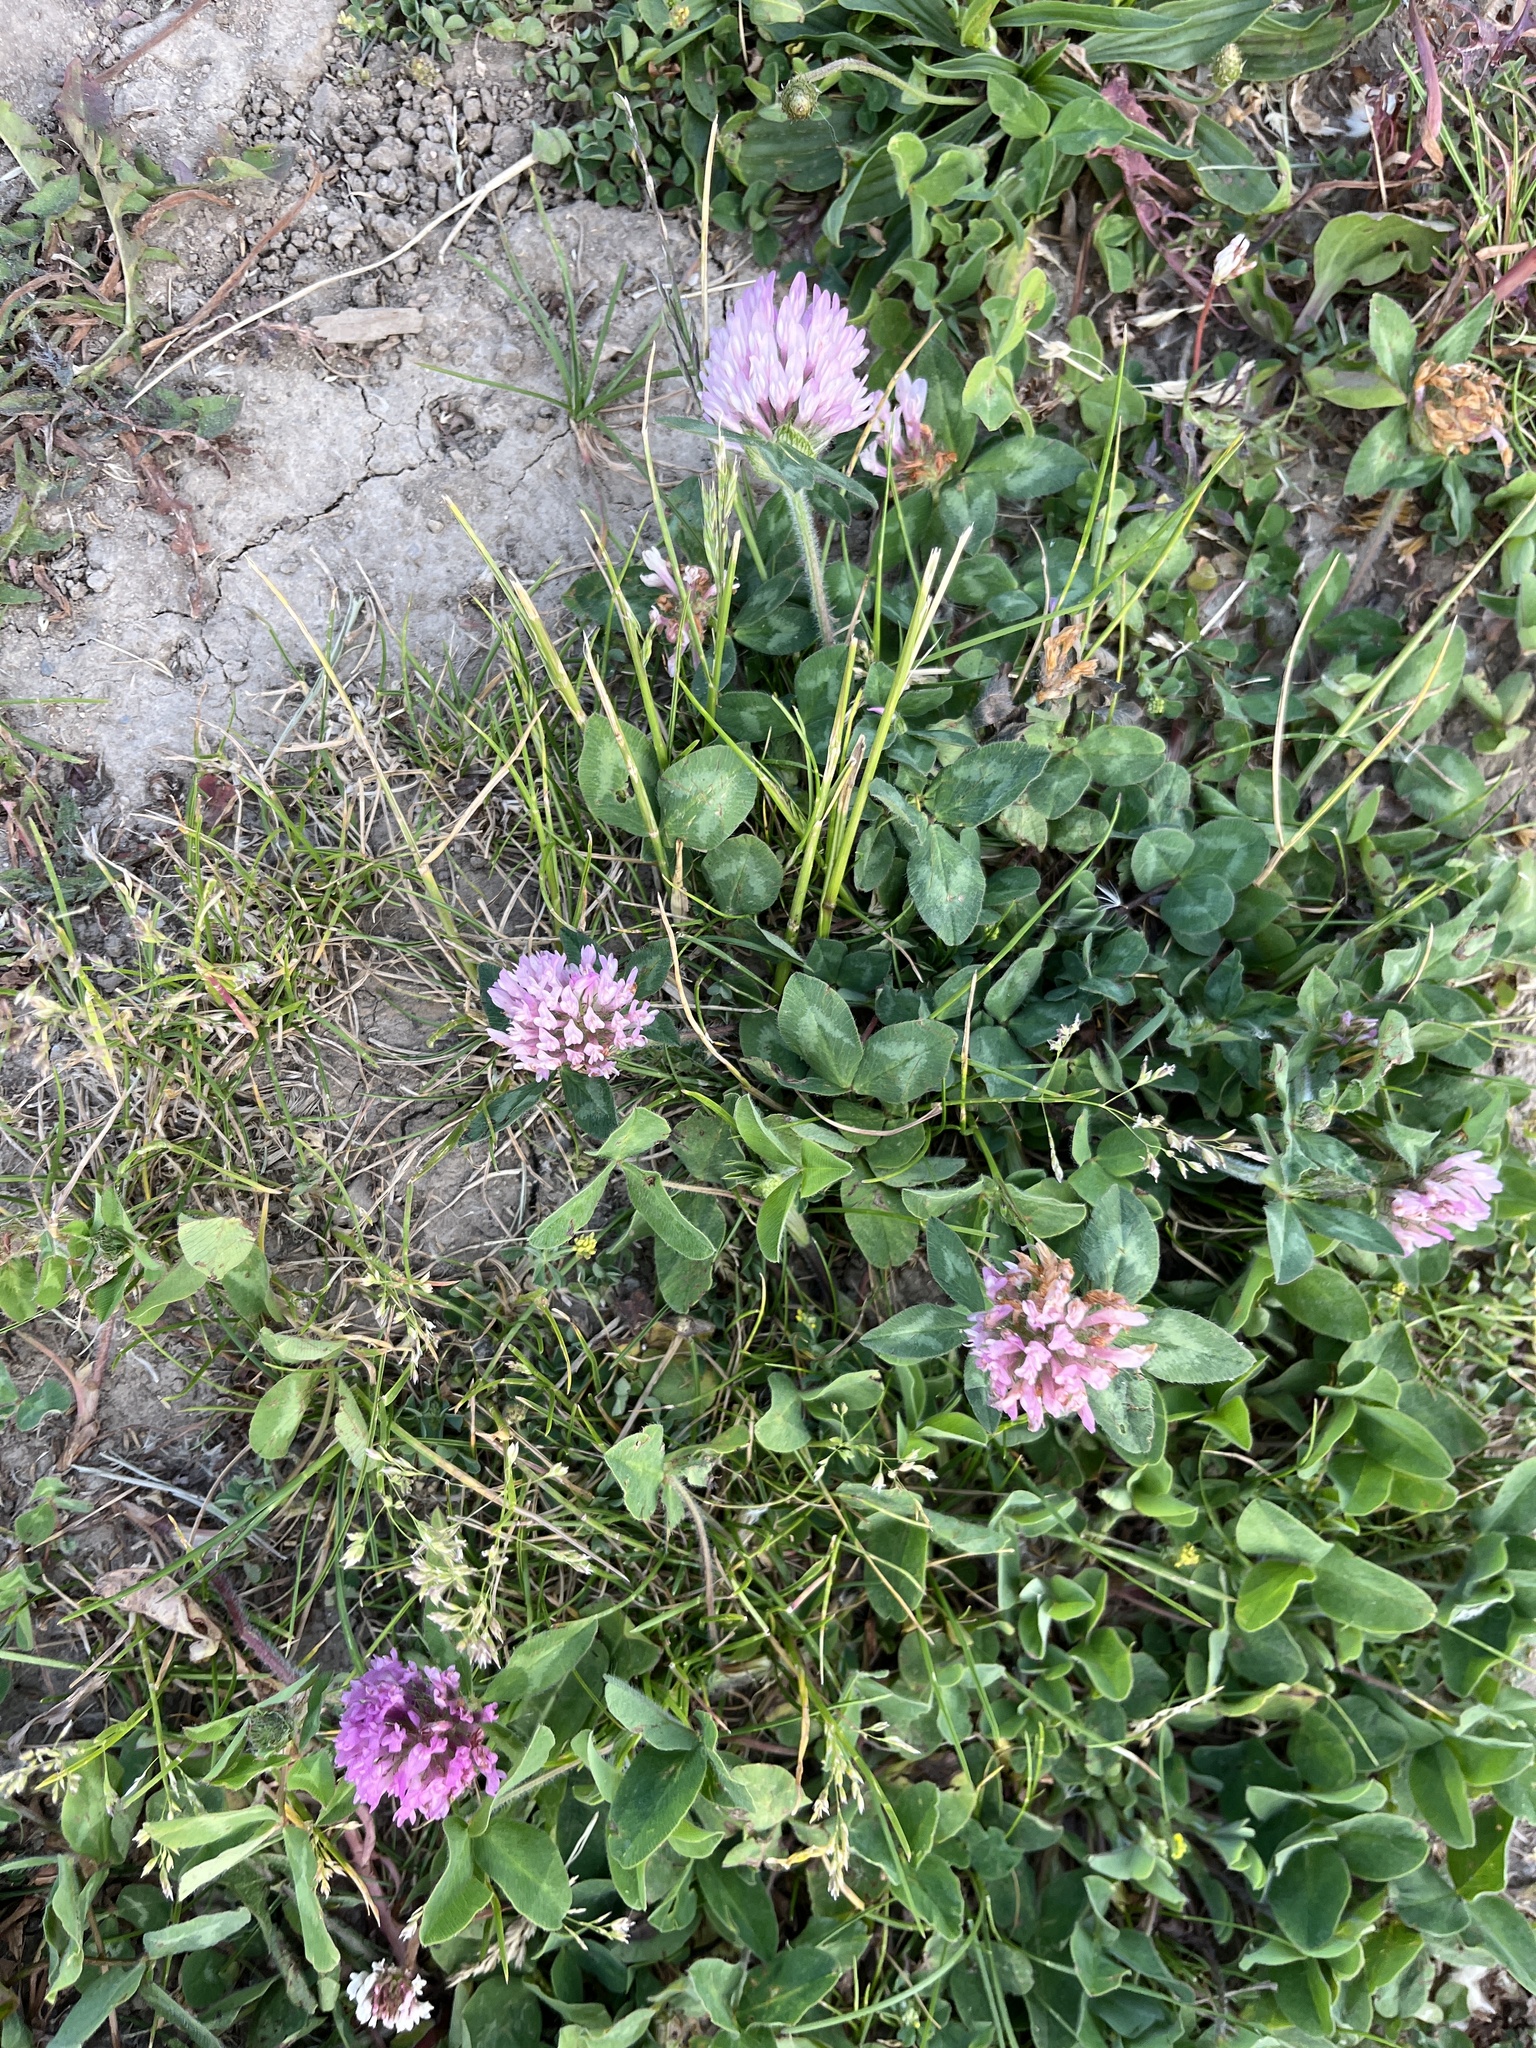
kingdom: Plantae
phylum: Tracheophyta
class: Magnoliopsida
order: Fabales
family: Fabaceae
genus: Trifolium
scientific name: Trifolium pratense
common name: Red clover
